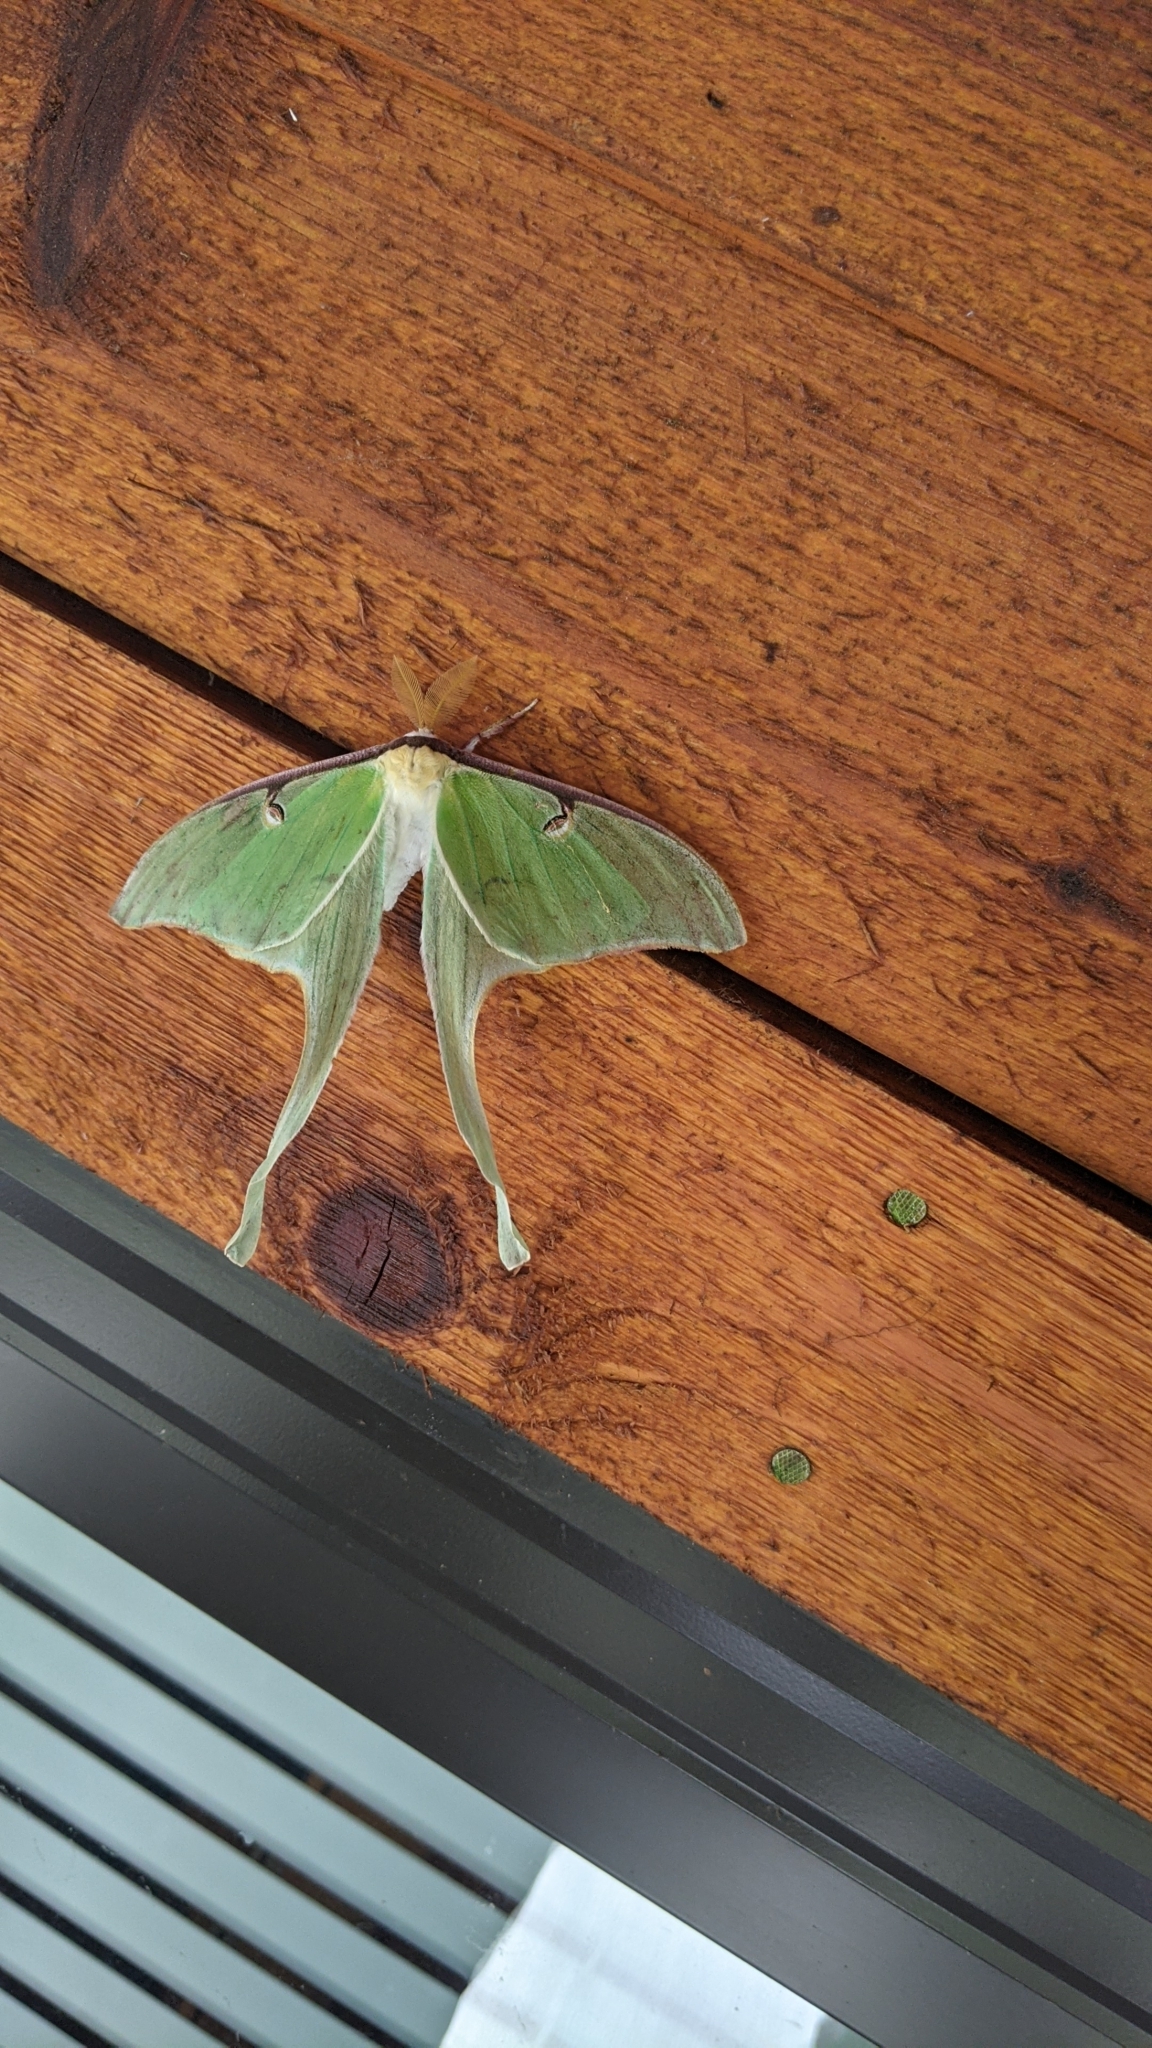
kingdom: Animalia
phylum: Arthropoda
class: Insecta
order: Lepidoptera
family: Saturniidae
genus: Actias
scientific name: Actias luna
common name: Luna moth
